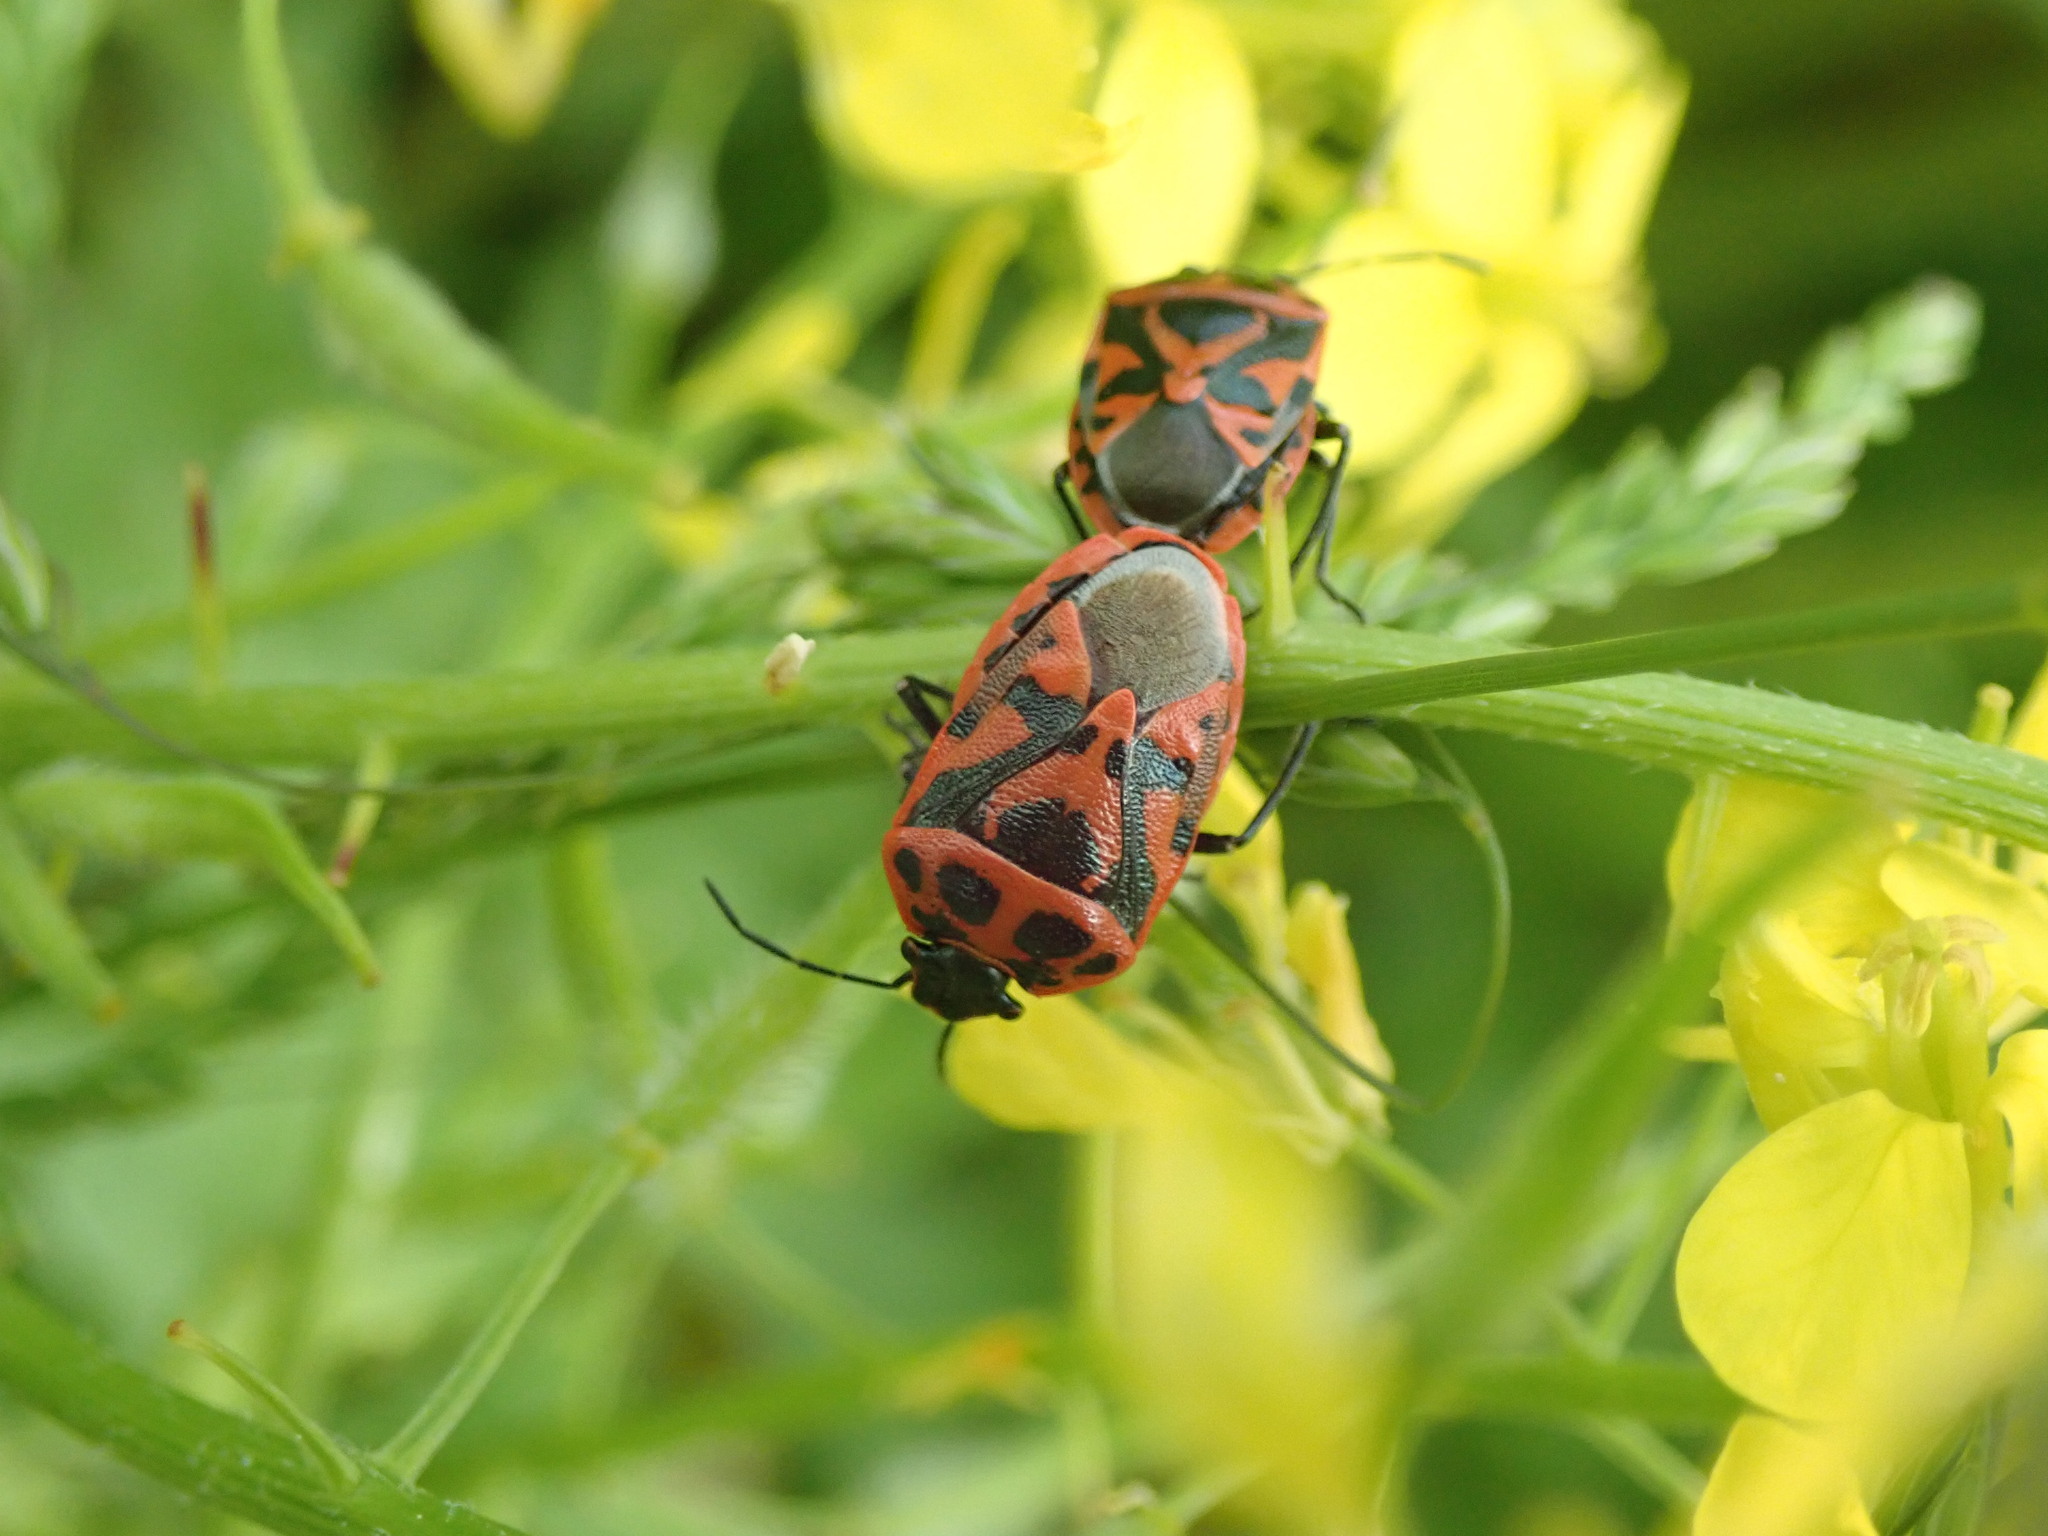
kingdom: Animalia
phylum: Arthropoda
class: Insecta
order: Hemiptera
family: Pentatomidae
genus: Eurydema
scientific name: Eurydema ornata
